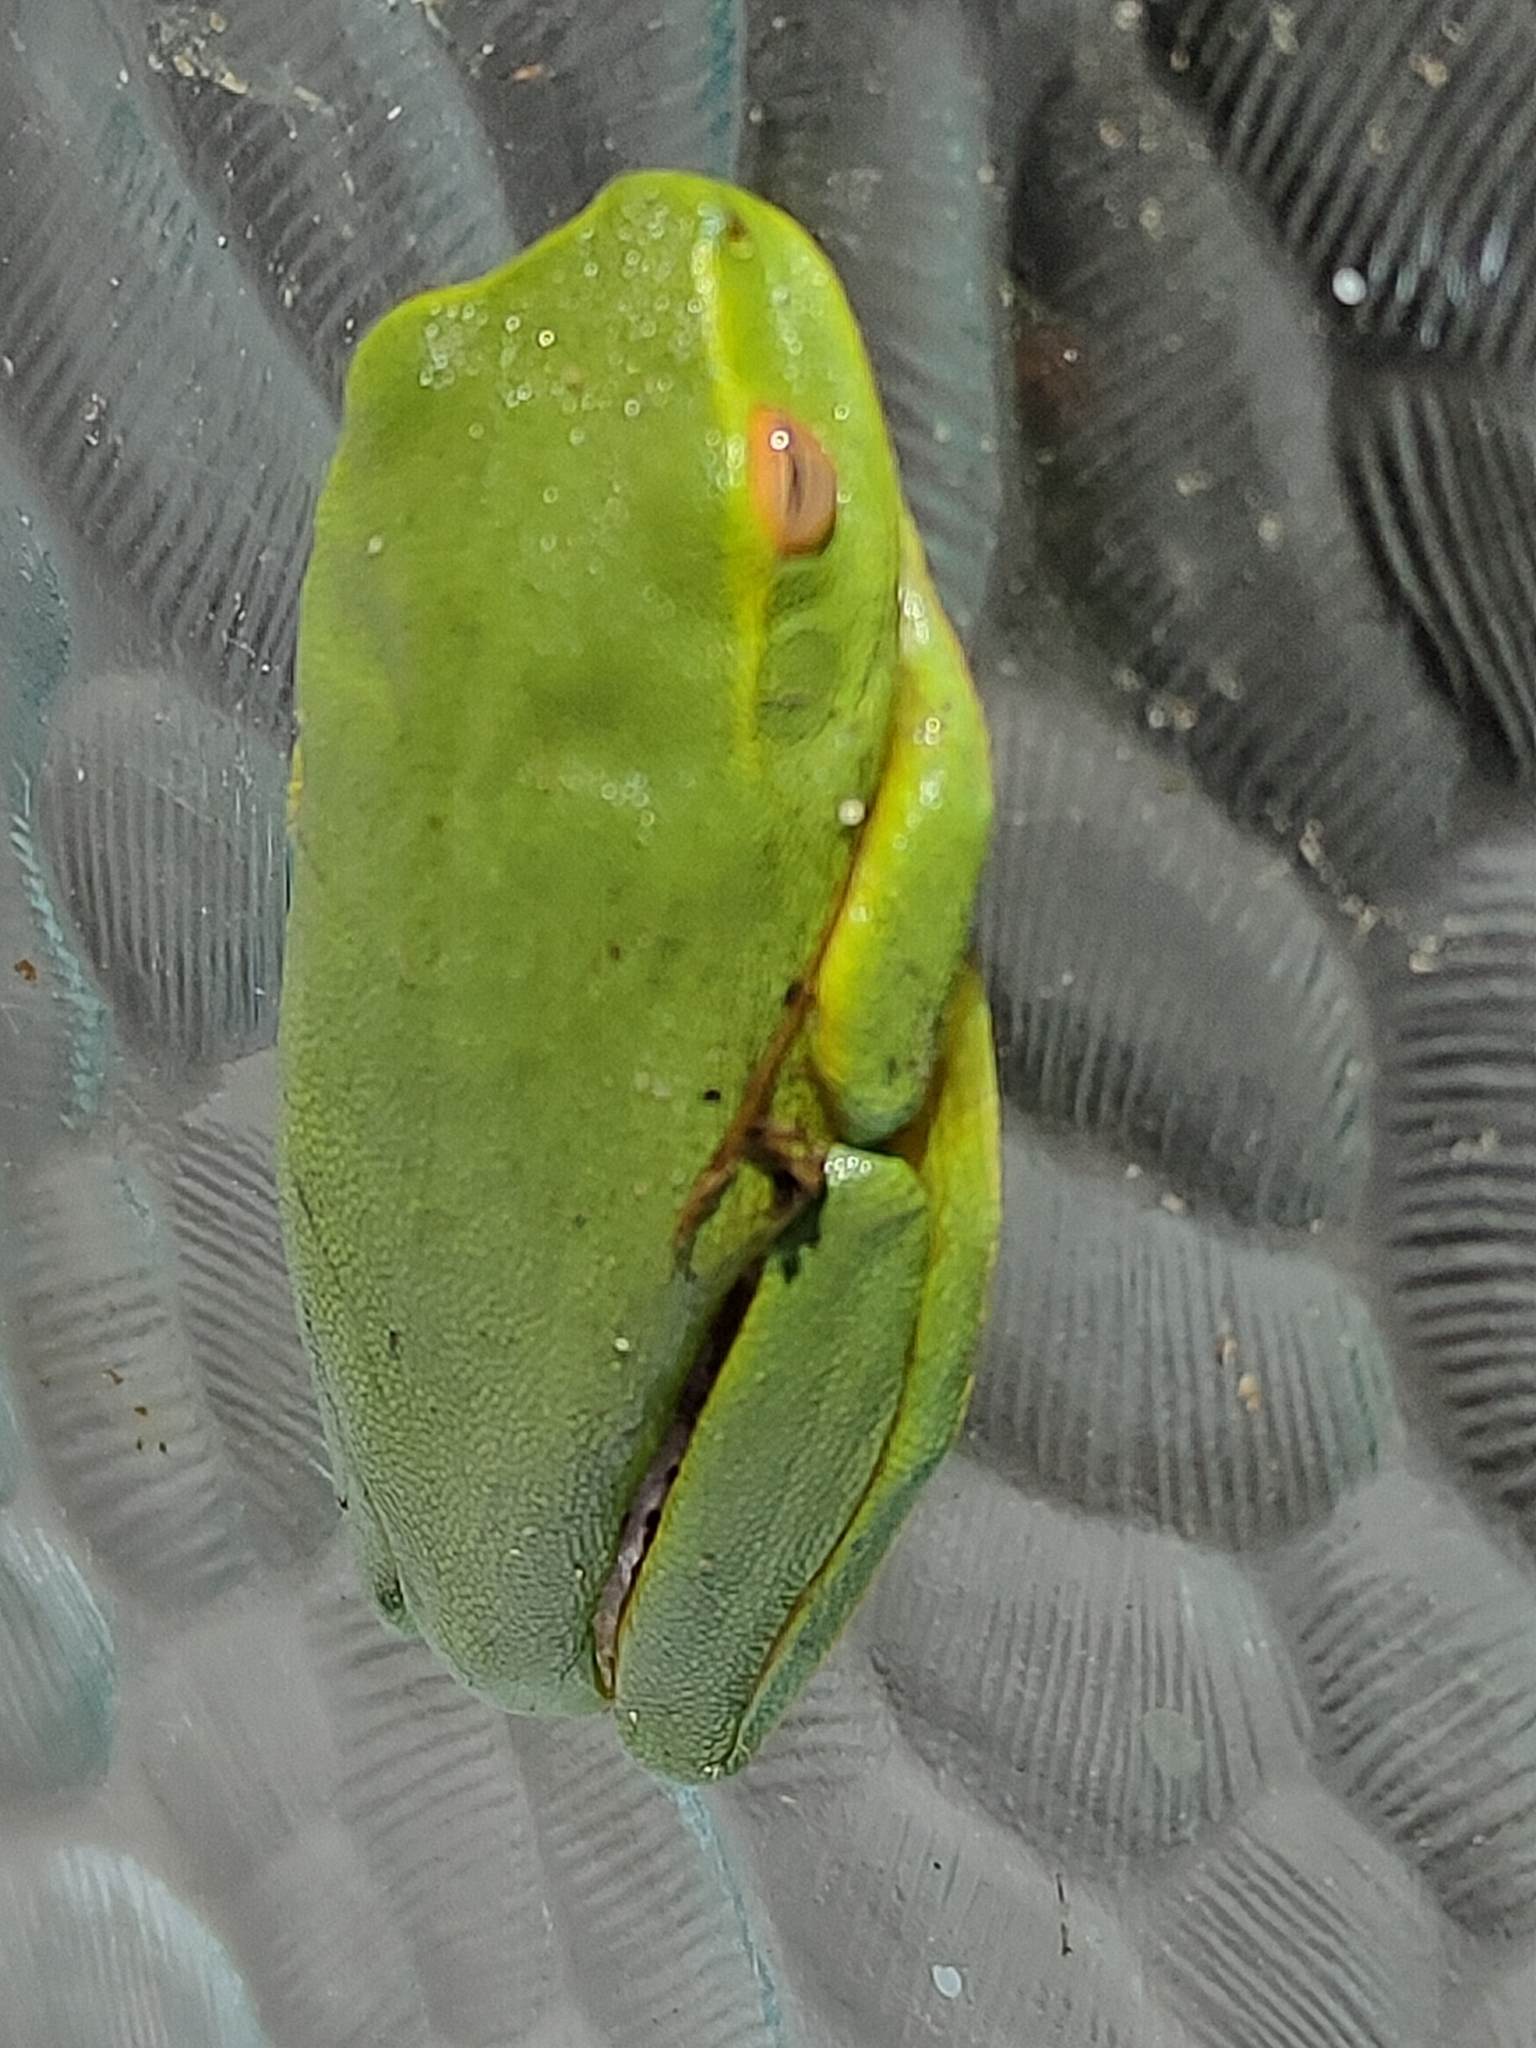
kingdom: Animalia
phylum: Chordata
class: Amphibia
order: Anura
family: Pelodryadidae
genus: Ranoidea
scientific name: Ranoidea gracilenta
